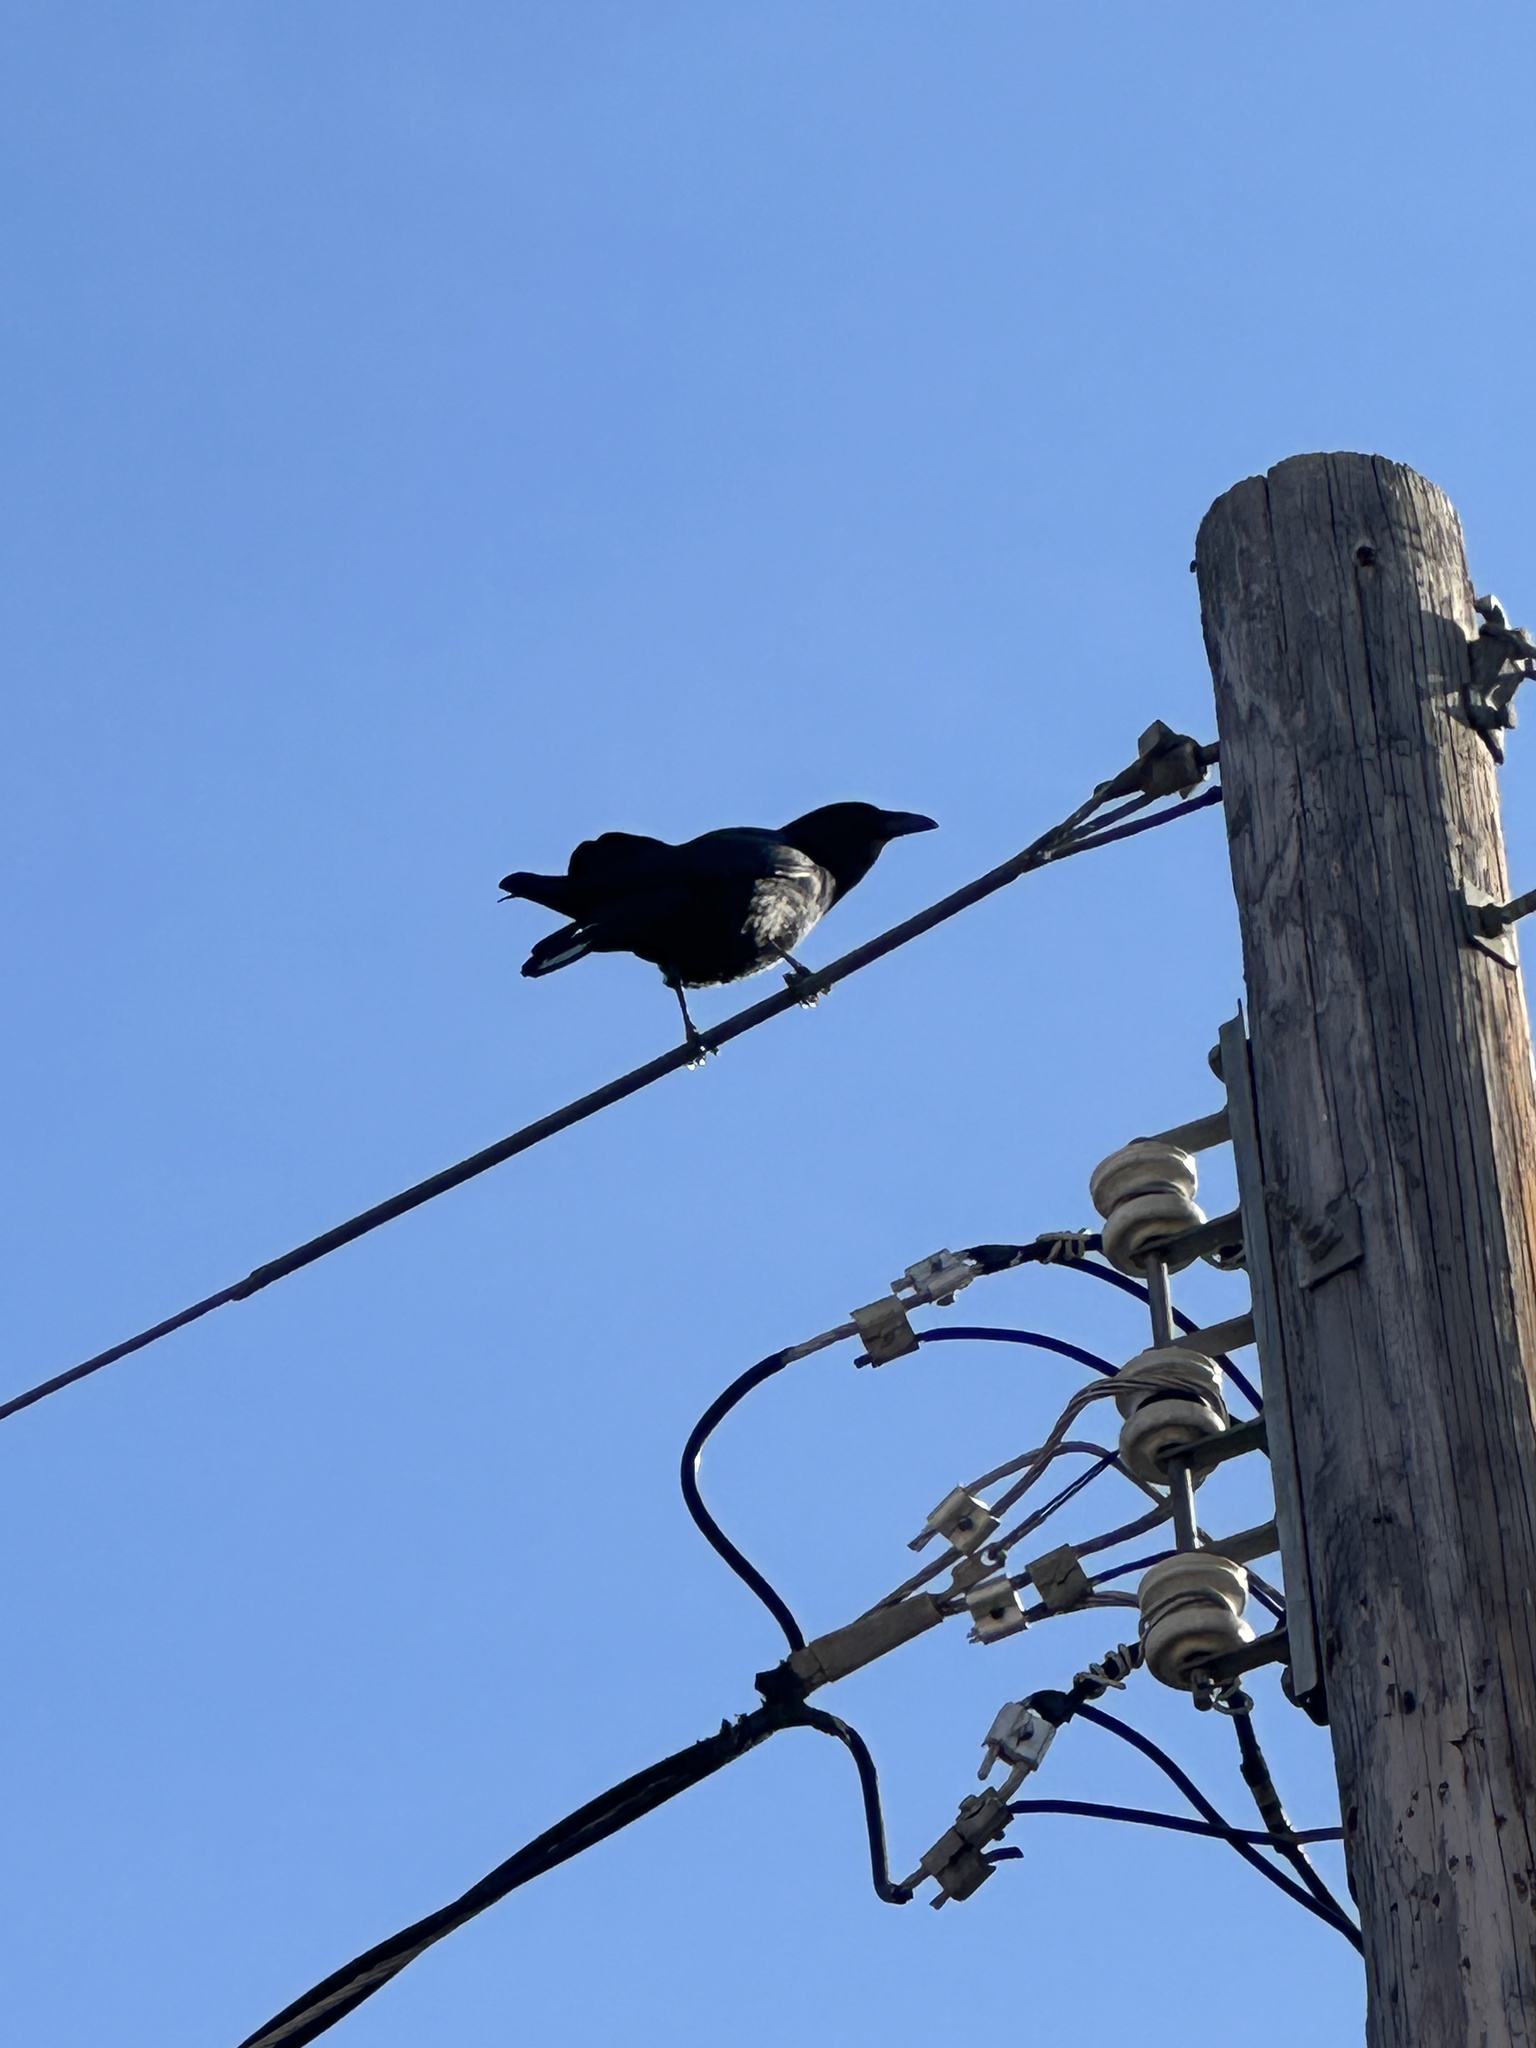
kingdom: Animalia
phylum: Chordata
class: Aves
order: Passeriformes
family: Corvidae
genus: Corvus
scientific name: Corvus corax
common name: Common raven
